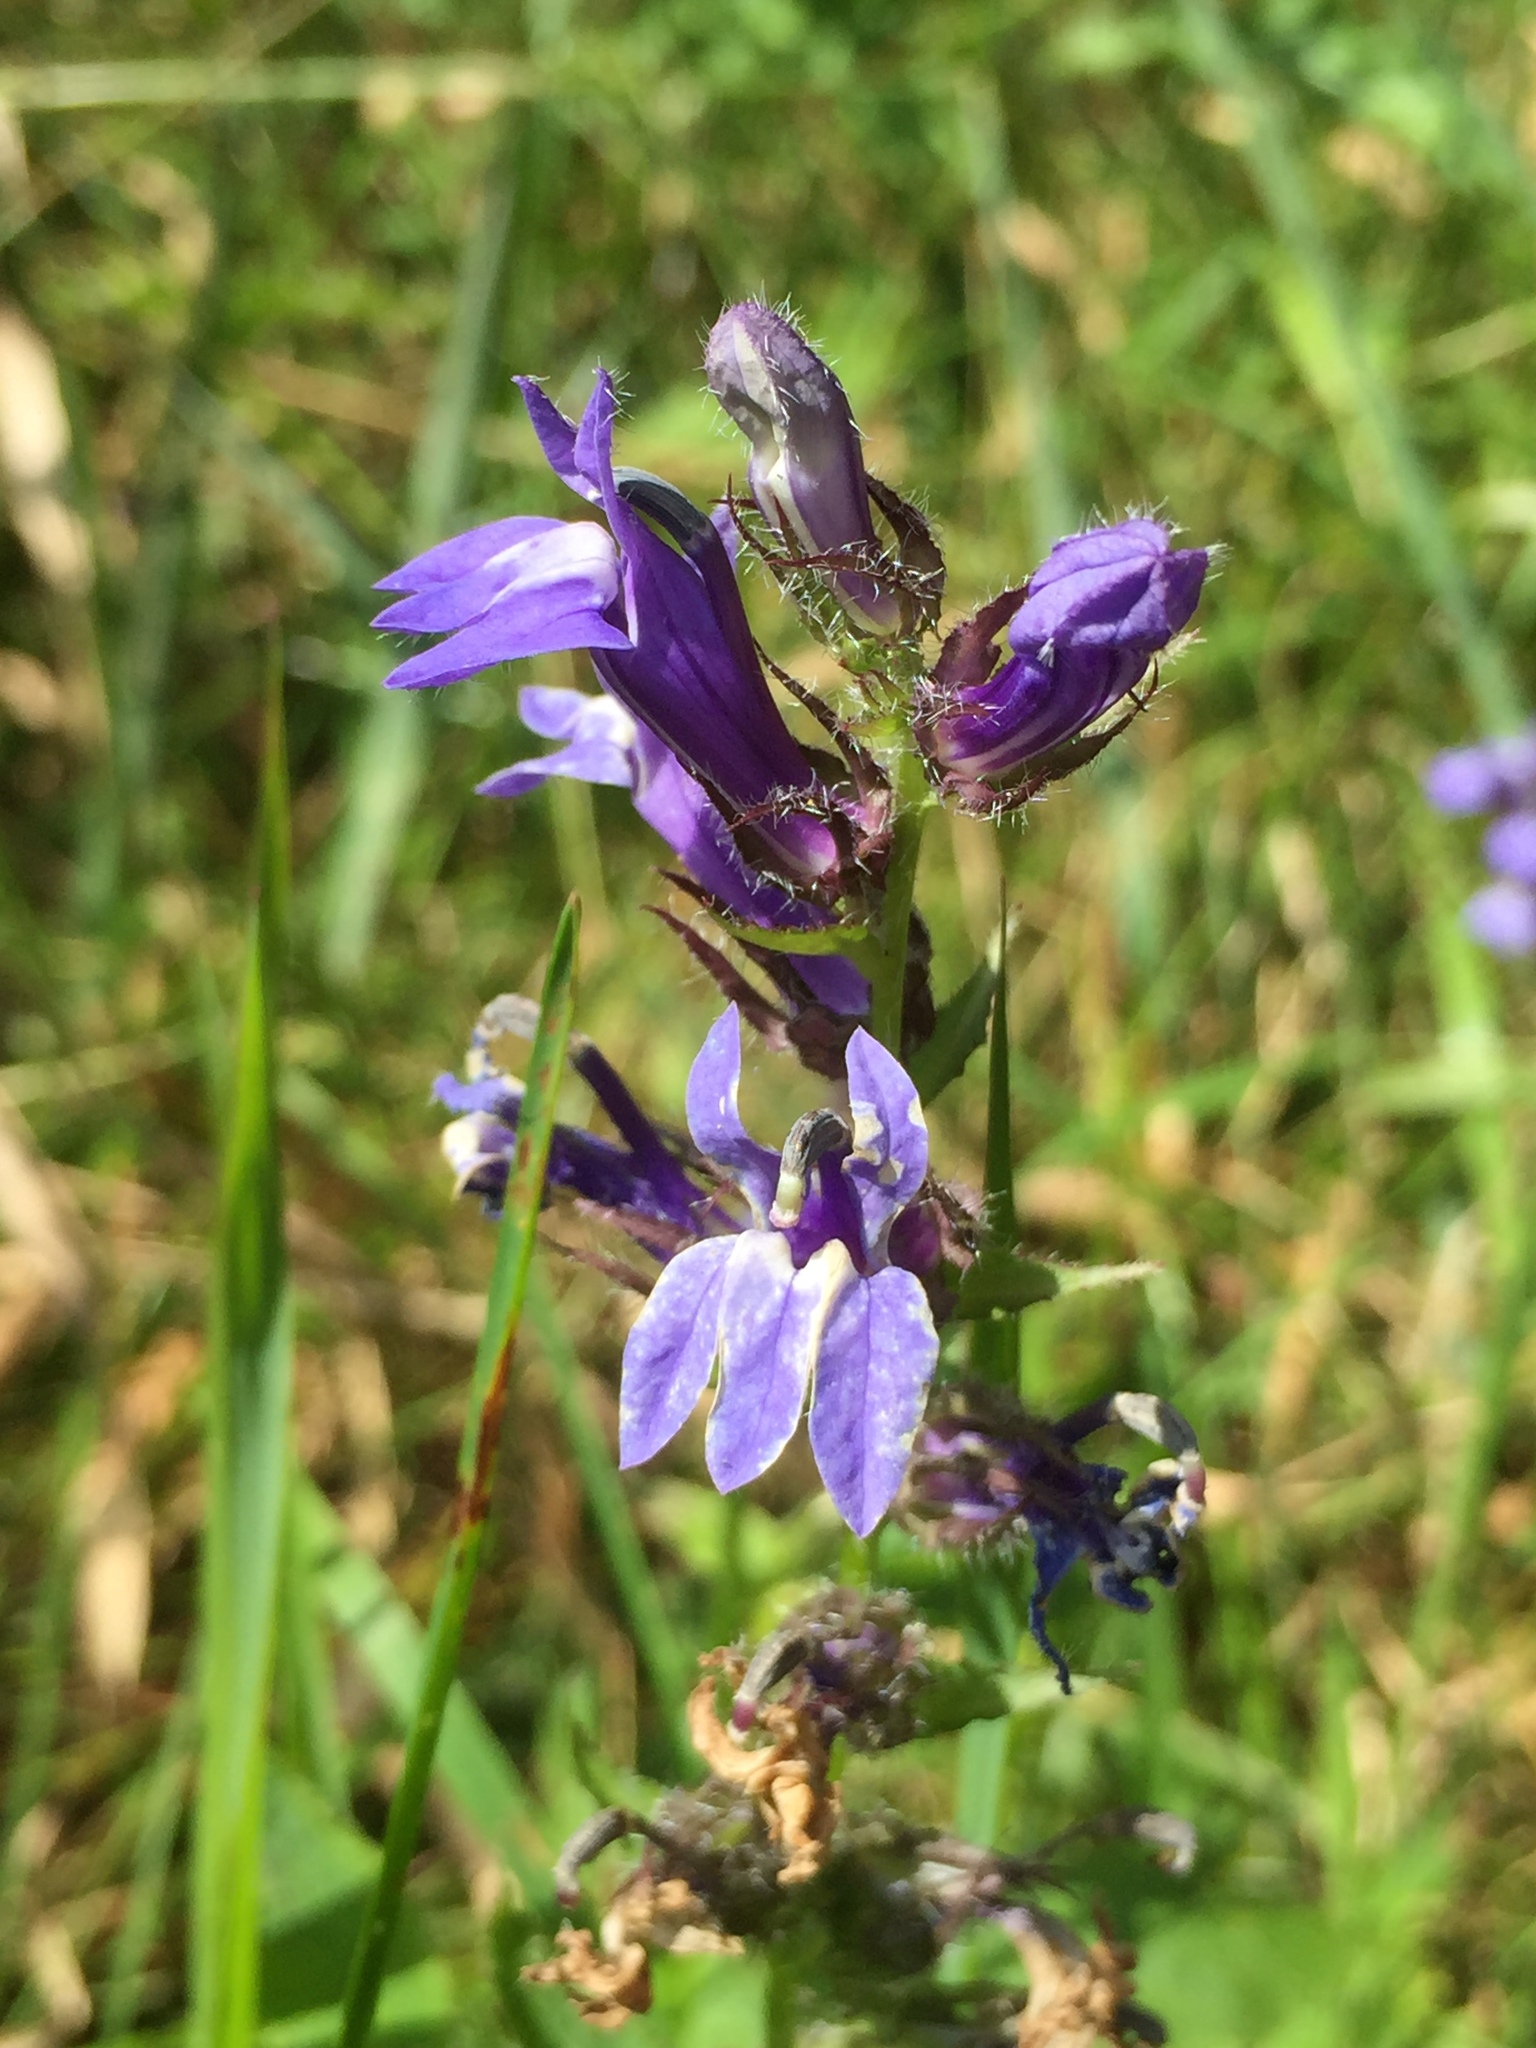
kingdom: Plantae
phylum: Tracheophyta
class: Magnoliopsida
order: Asterales
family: Campanulaceae
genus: Lobelia
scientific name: Lobelia siphilitica
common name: Great lobelia
